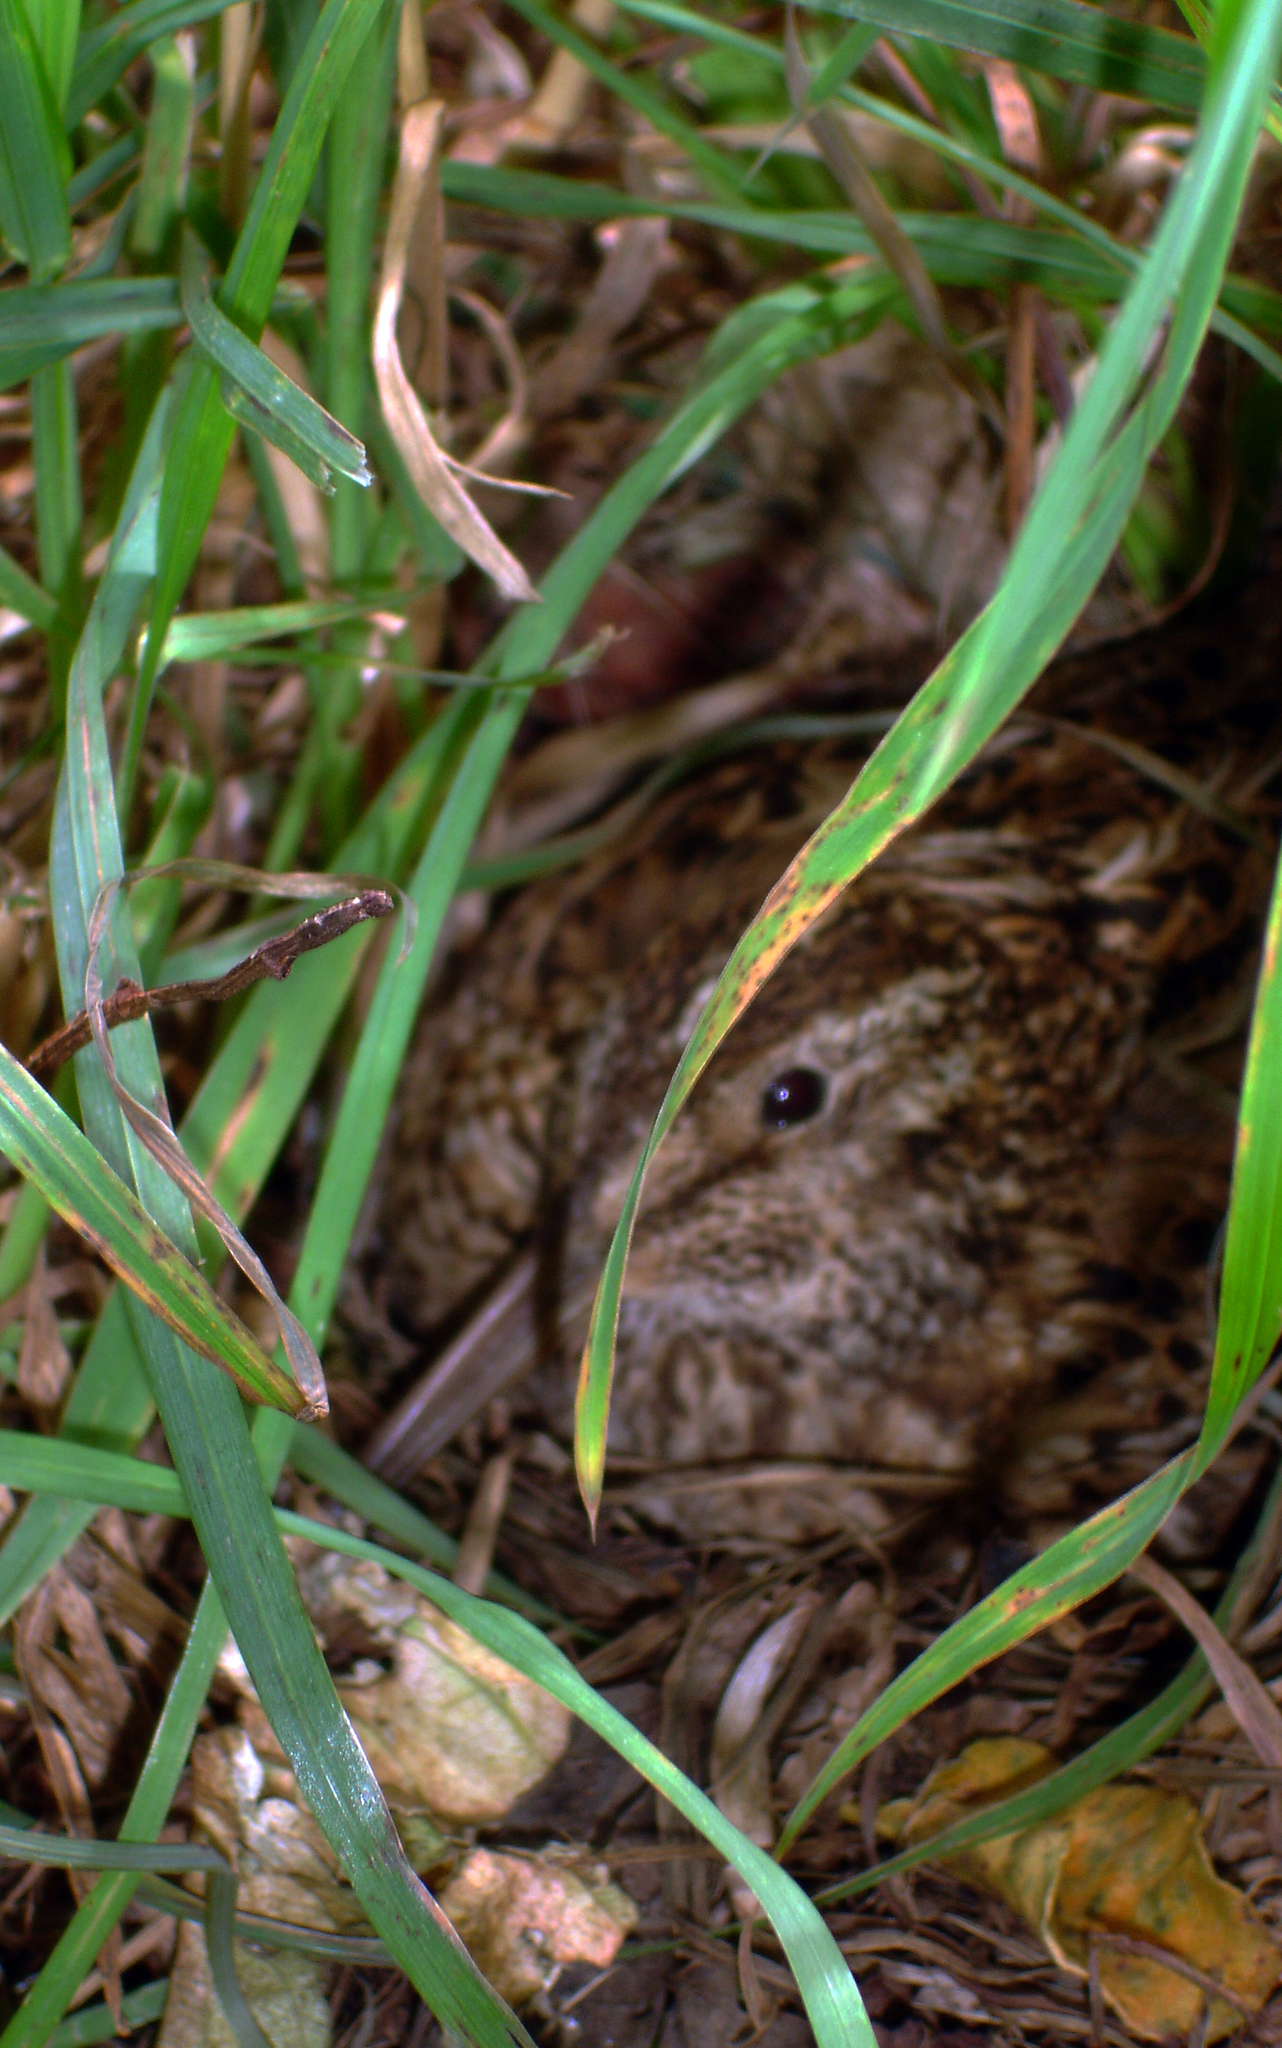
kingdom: Animalia
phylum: Chordata
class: Aves
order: Charadriiformes
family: Scolopacidae
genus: Coenocorypha
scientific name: Coenocorypha pusilla
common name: Chatham snipe
